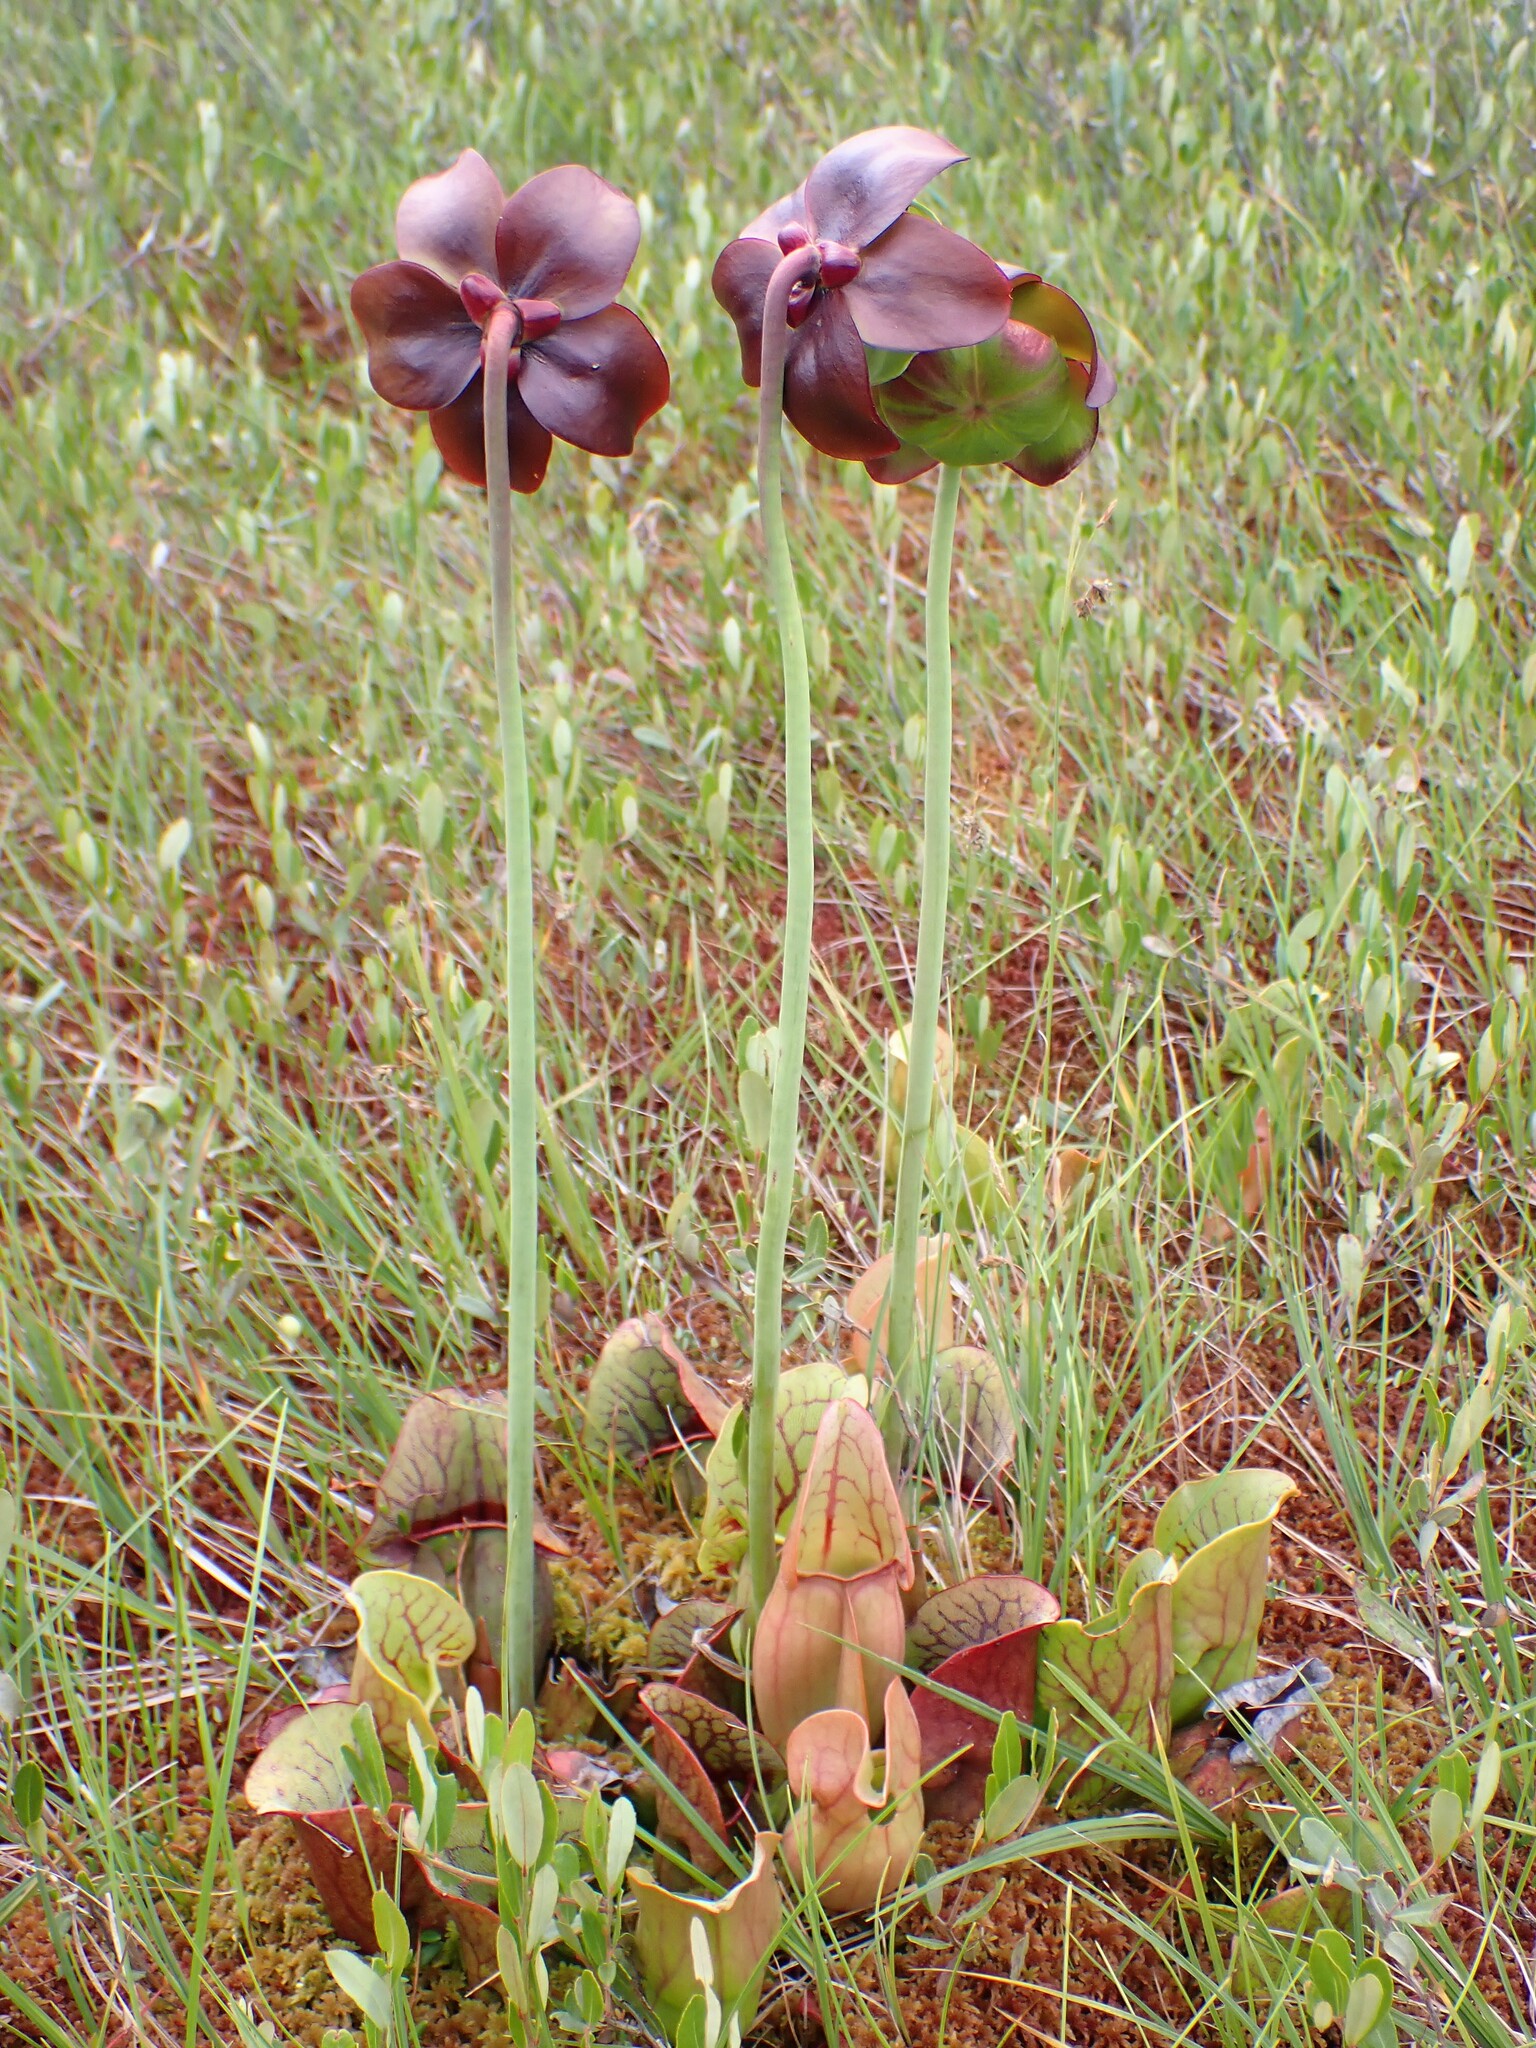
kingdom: Plantae
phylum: Tracheophyta
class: Magnoliopsida
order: Ericales
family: Sarraceniaceae
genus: Sarracenia
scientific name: Sarracenia purpurea
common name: Pitcherplant
